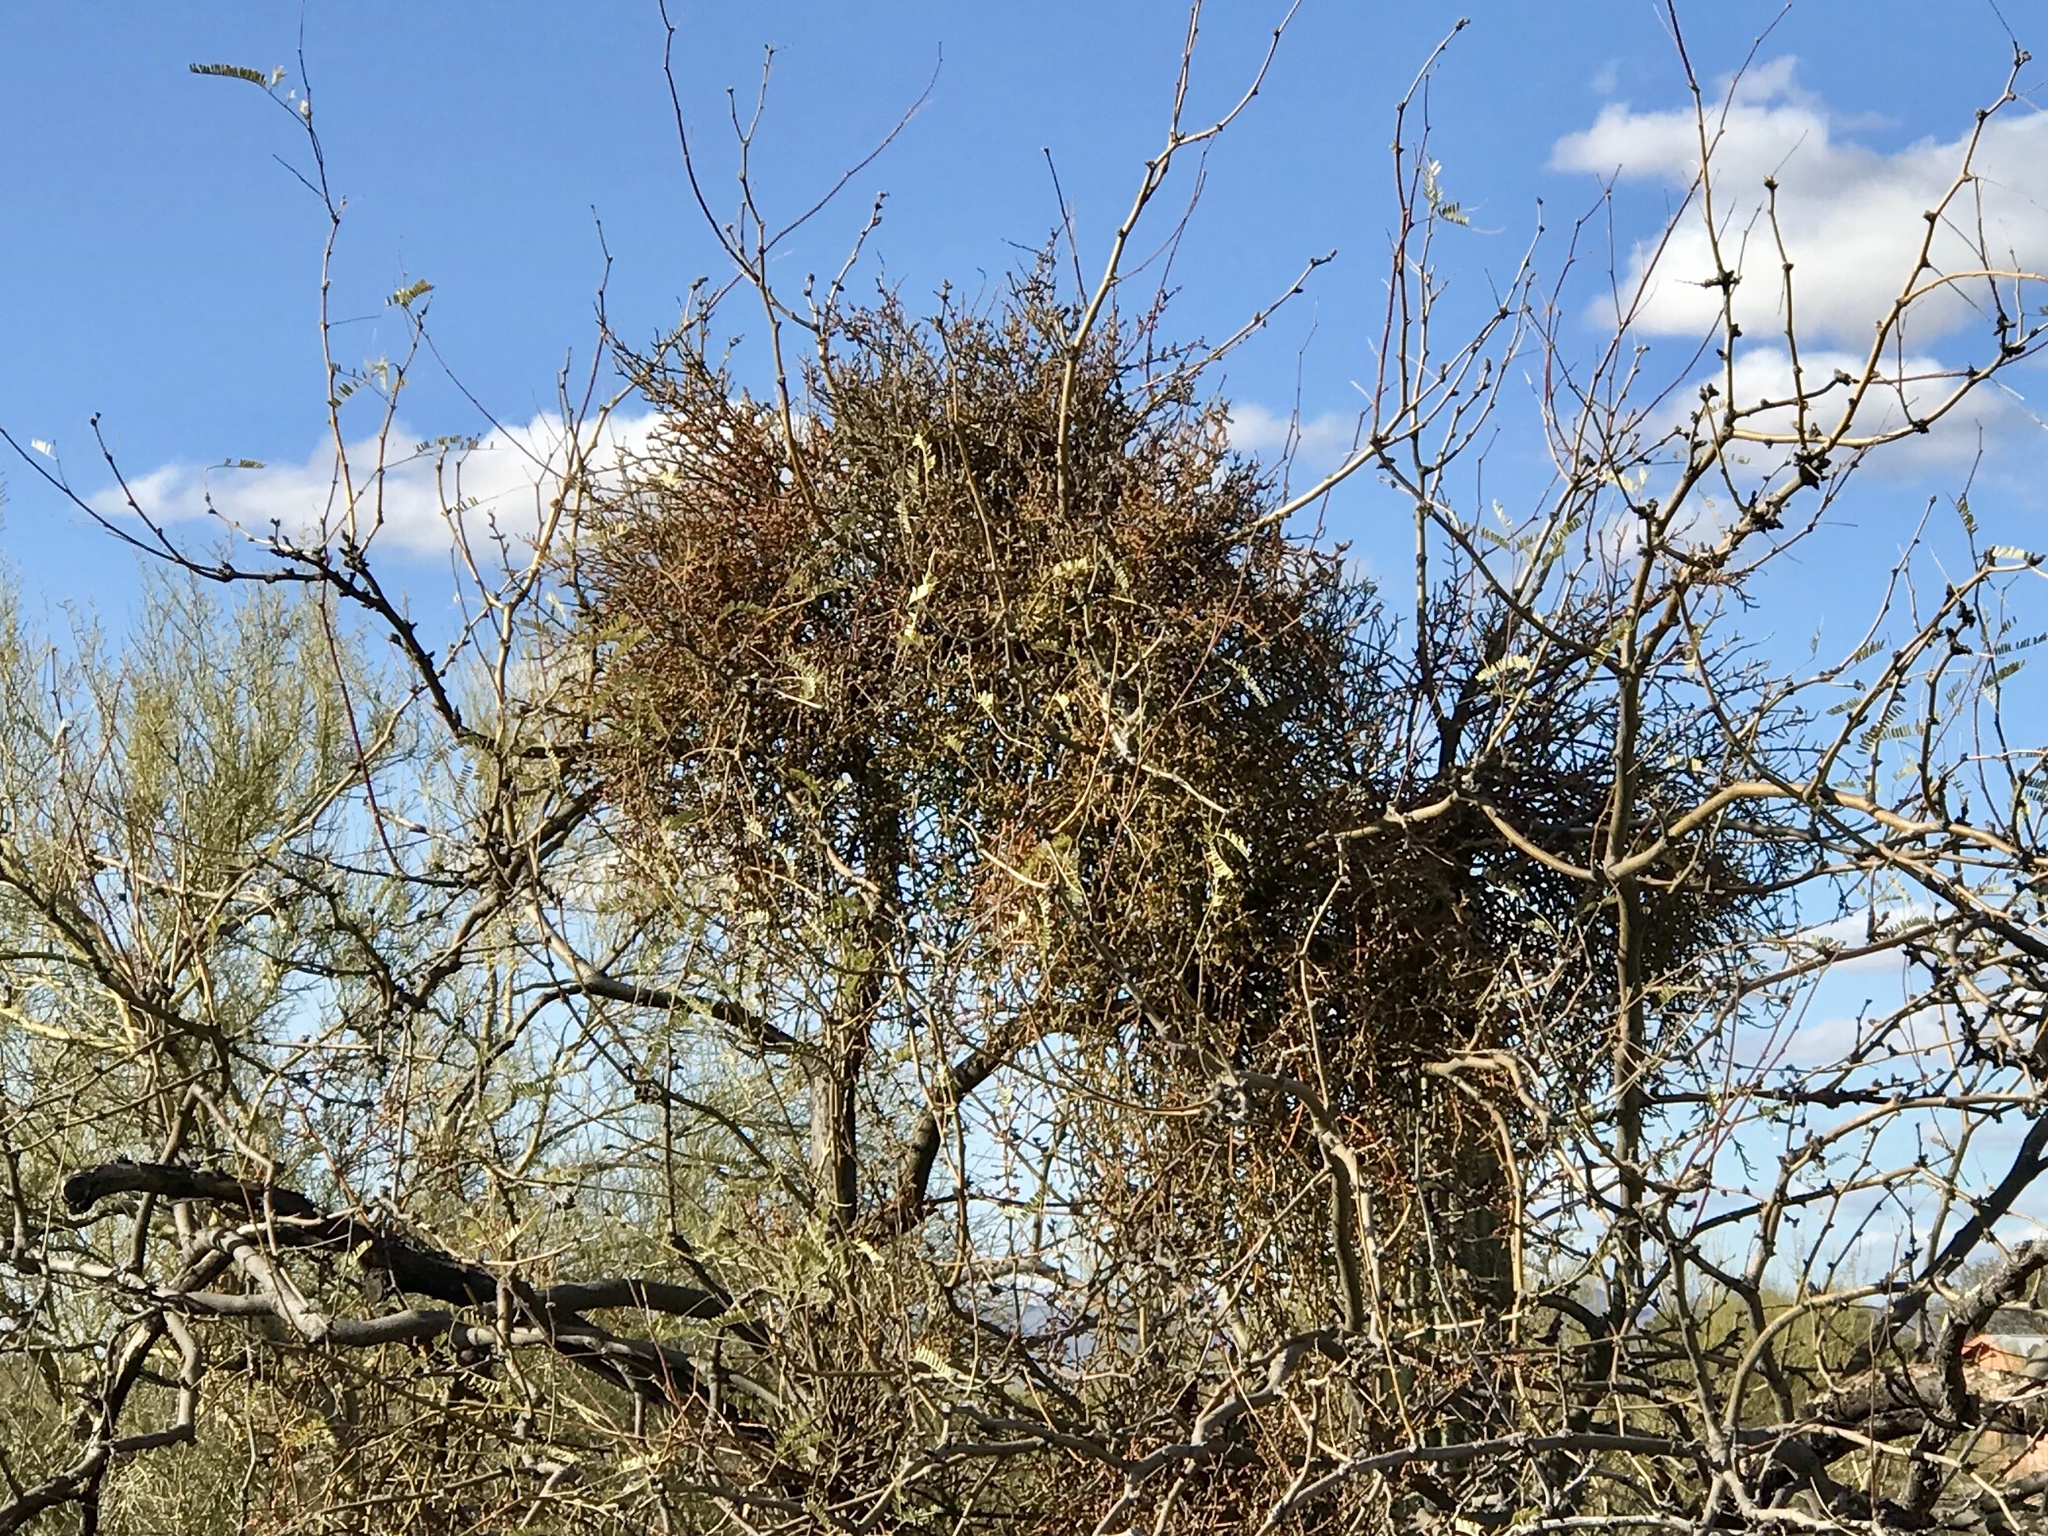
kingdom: Plantae
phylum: Tracheophyta
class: Magnoliopsida
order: Santalales
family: Viscaceae
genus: Phoradendron
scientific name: Phoradendron californicum
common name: Acacia mistletoe
